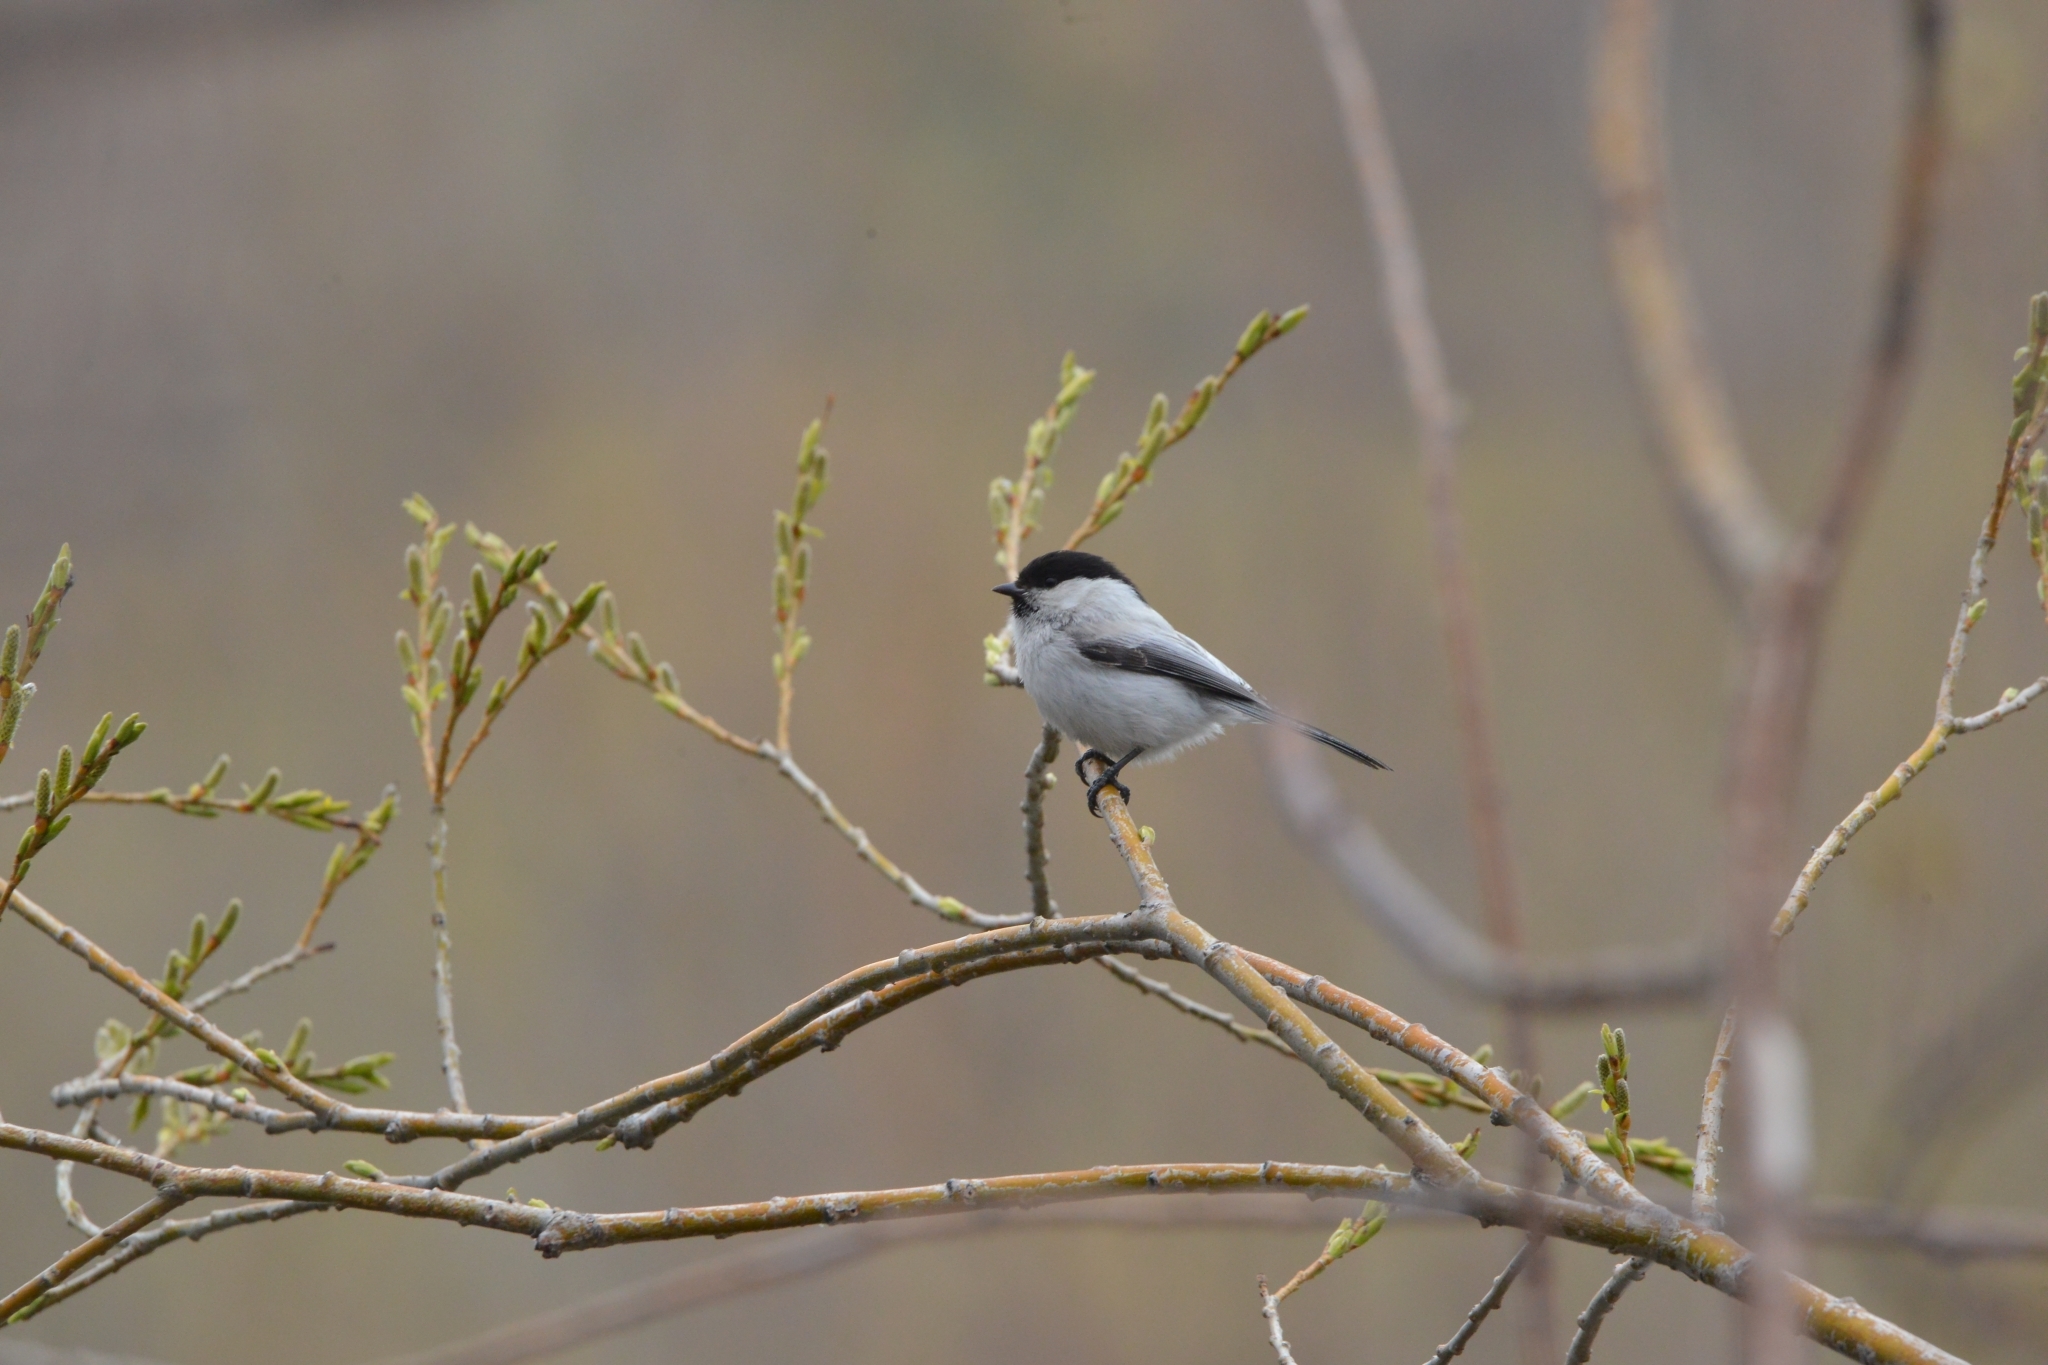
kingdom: Animalia
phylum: Chordata
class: Aves
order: Passeriformes
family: Paridae
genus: Poecile
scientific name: Poecile montanus
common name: Willow tit
